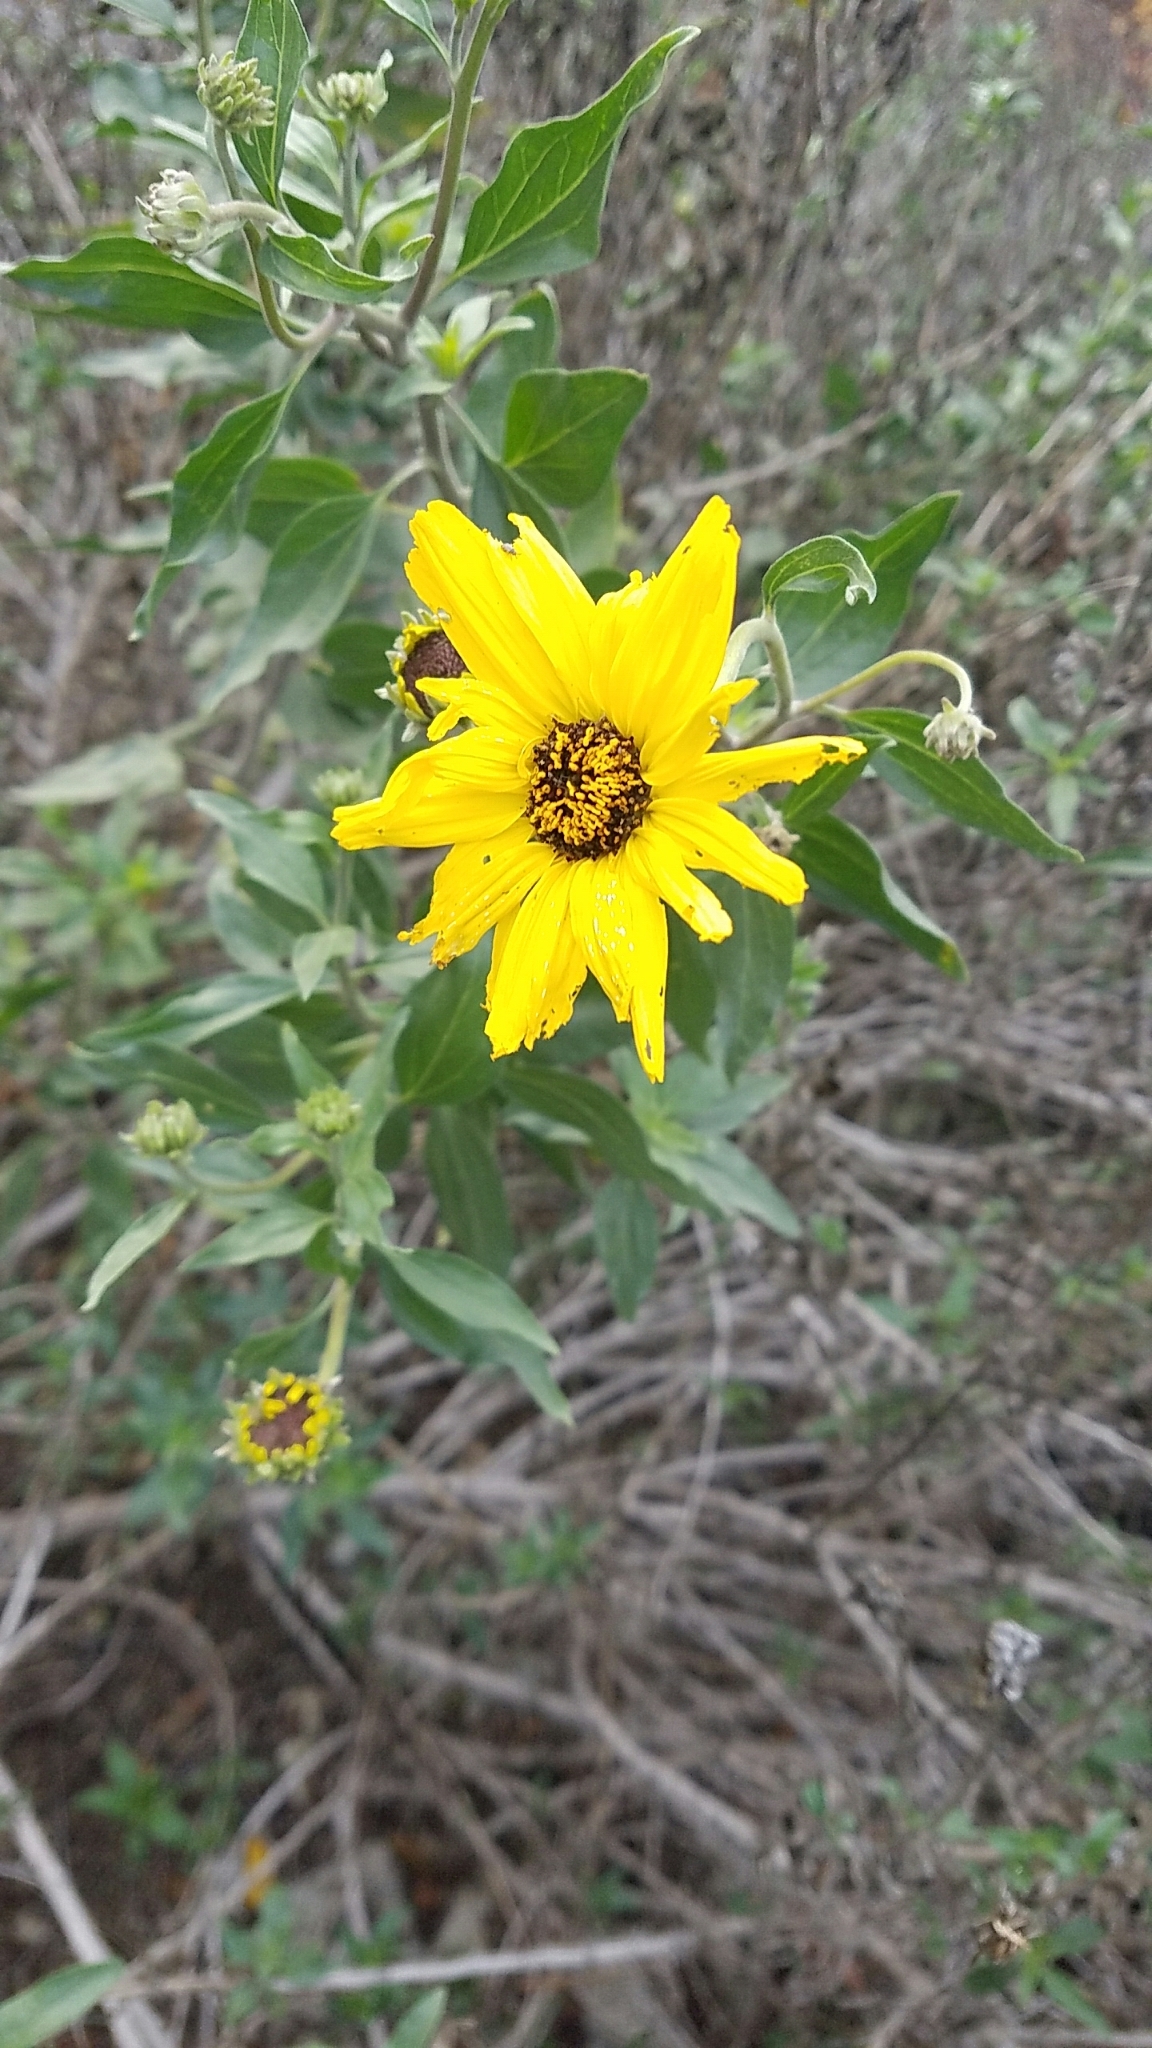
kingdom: Plantae
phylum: Tracheophyta
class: Magnoliopsida
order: Asterales
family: Asteraceae
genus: Encelia
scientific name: Encelia californica
